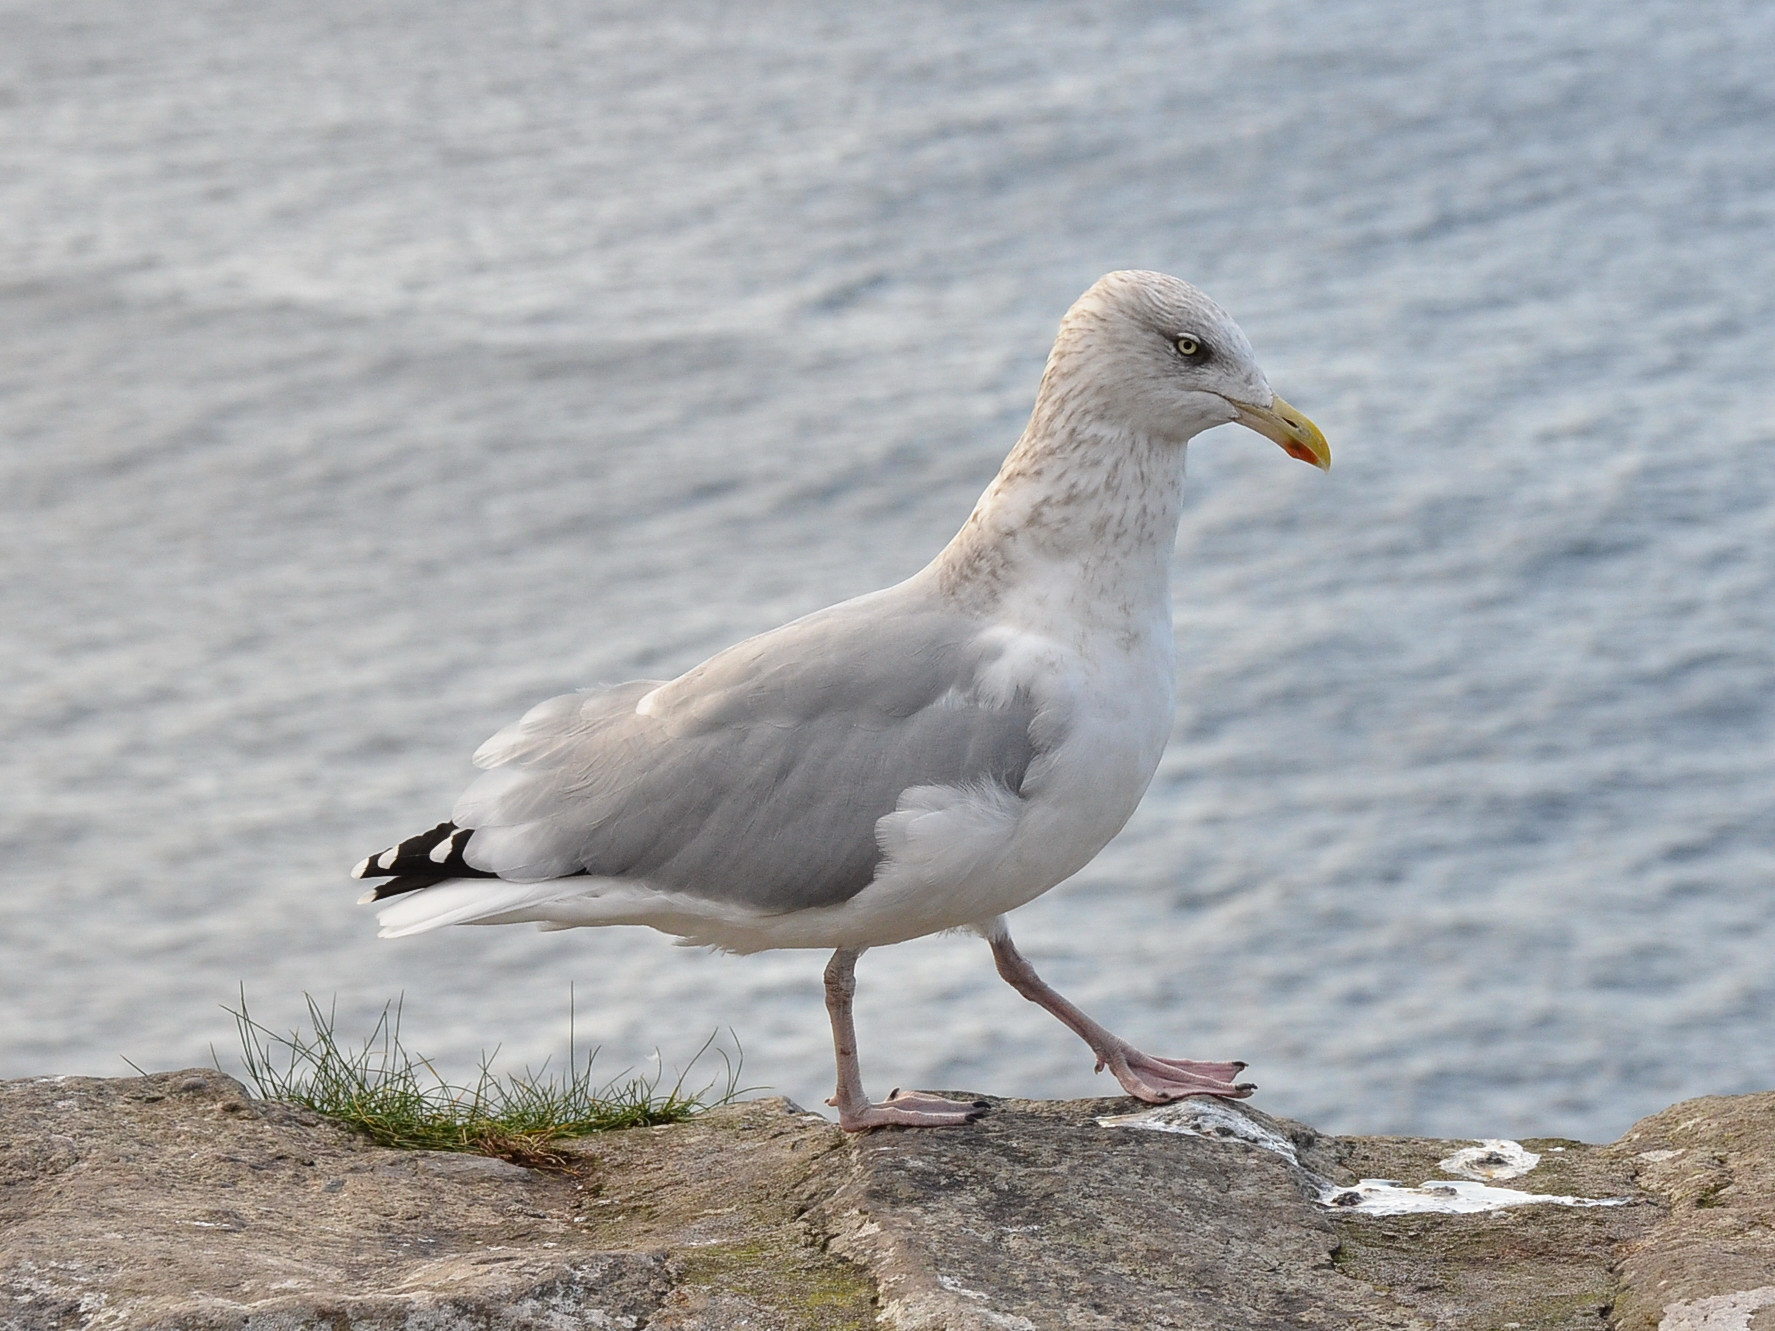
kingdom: Animalia
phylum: Chordata
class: Aves
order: Charadriiformes
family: Laridae
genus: Larus
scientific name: Larus argentatus
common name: Herring gull
